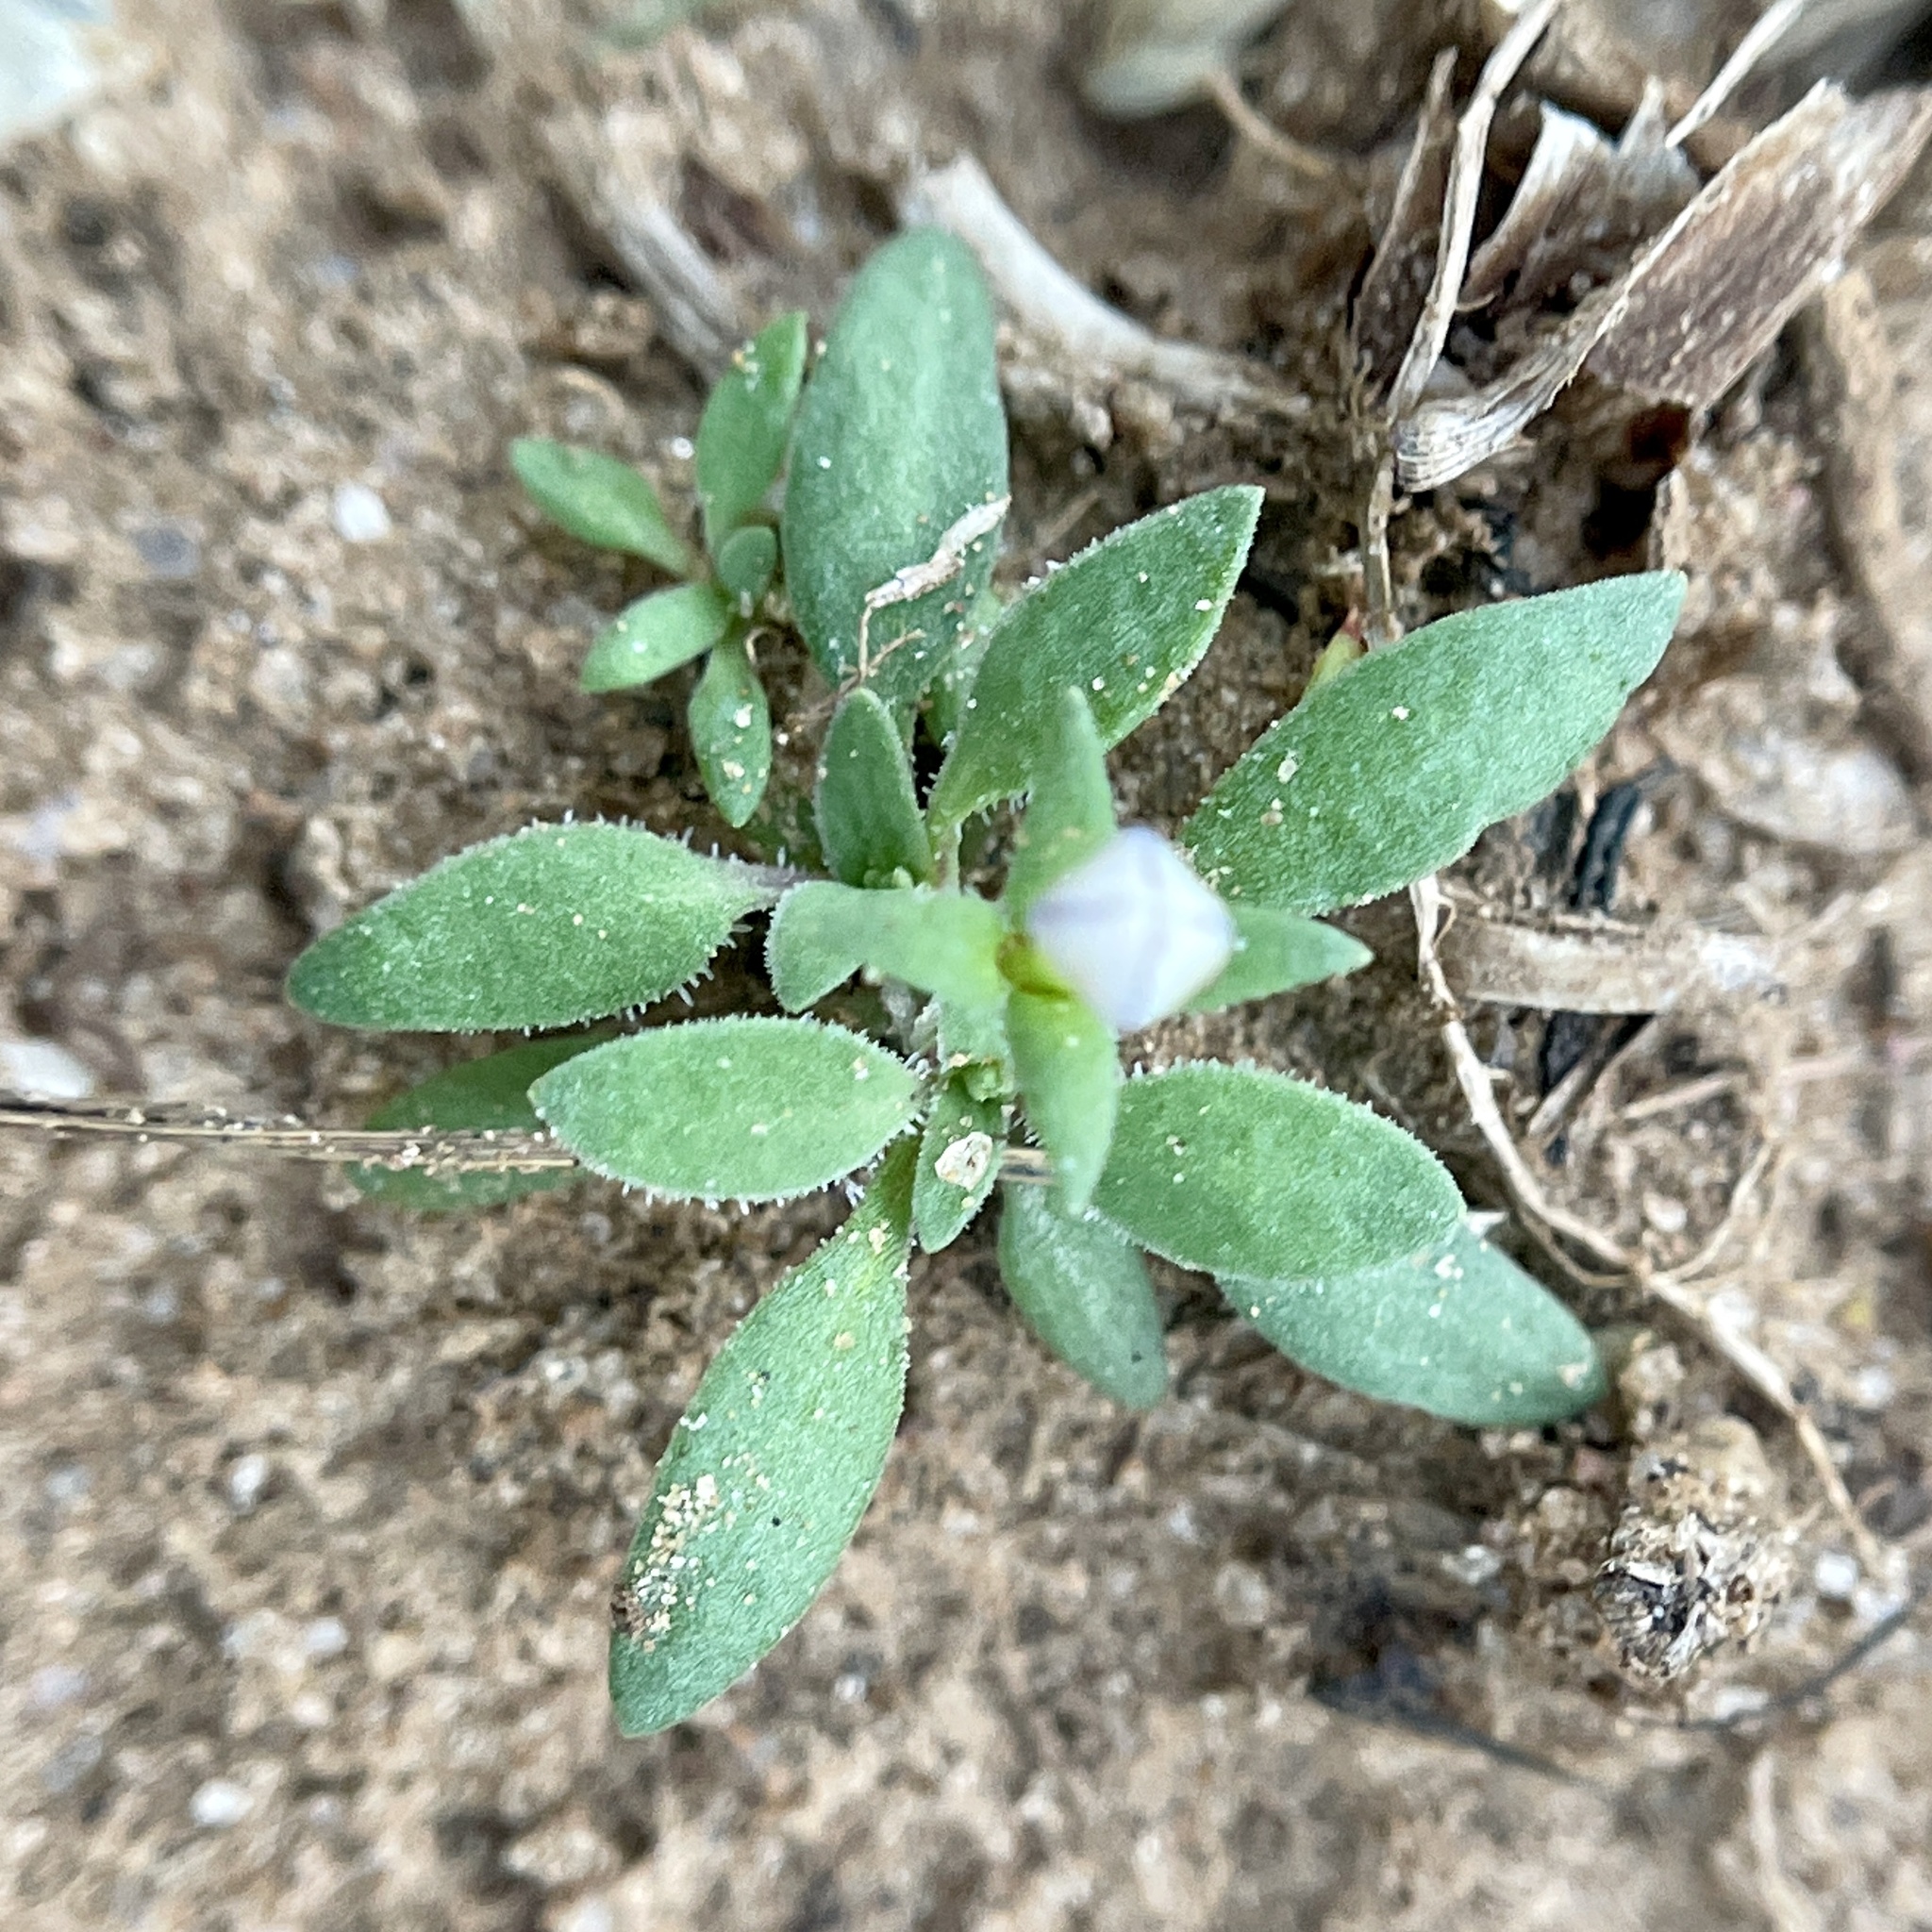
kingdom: Plantae
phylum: Tracheophyta
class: Magnoliopsida
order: Gentianales
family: Rubiaceae
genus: Houstonia
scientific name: Houstonia rosea
